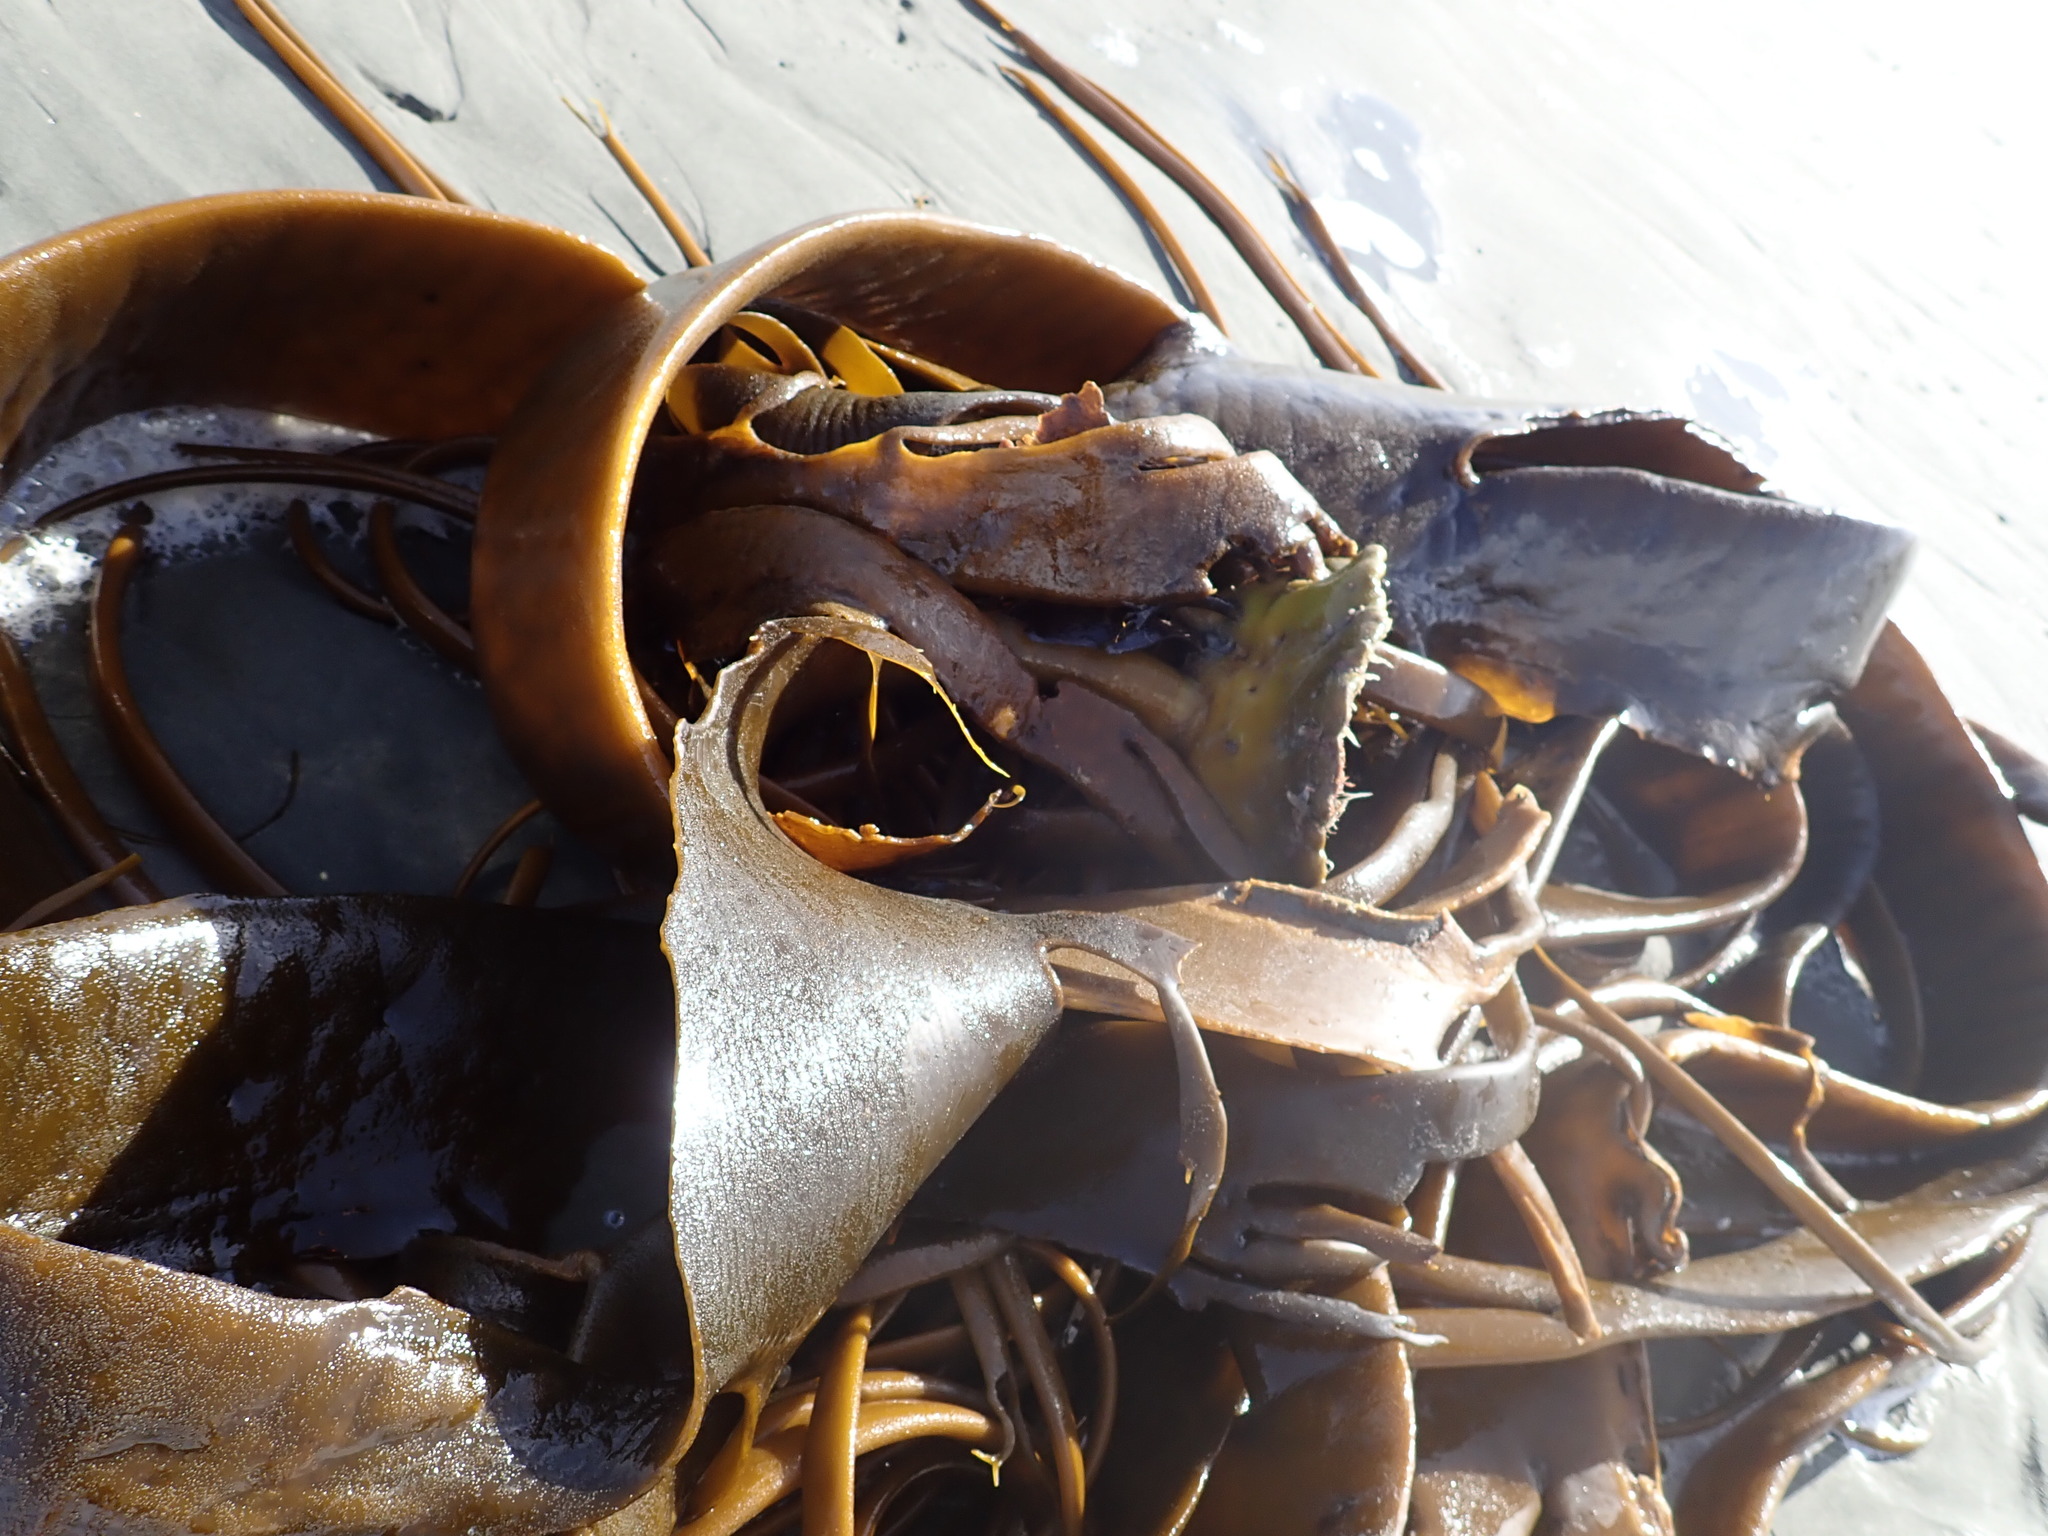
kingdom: Chromista
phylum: Ochrophyta
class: Phaeophyceae
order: Fucales
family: Durvillaeaceae
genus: Durvillaea
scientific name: Durvillaea antarctica
